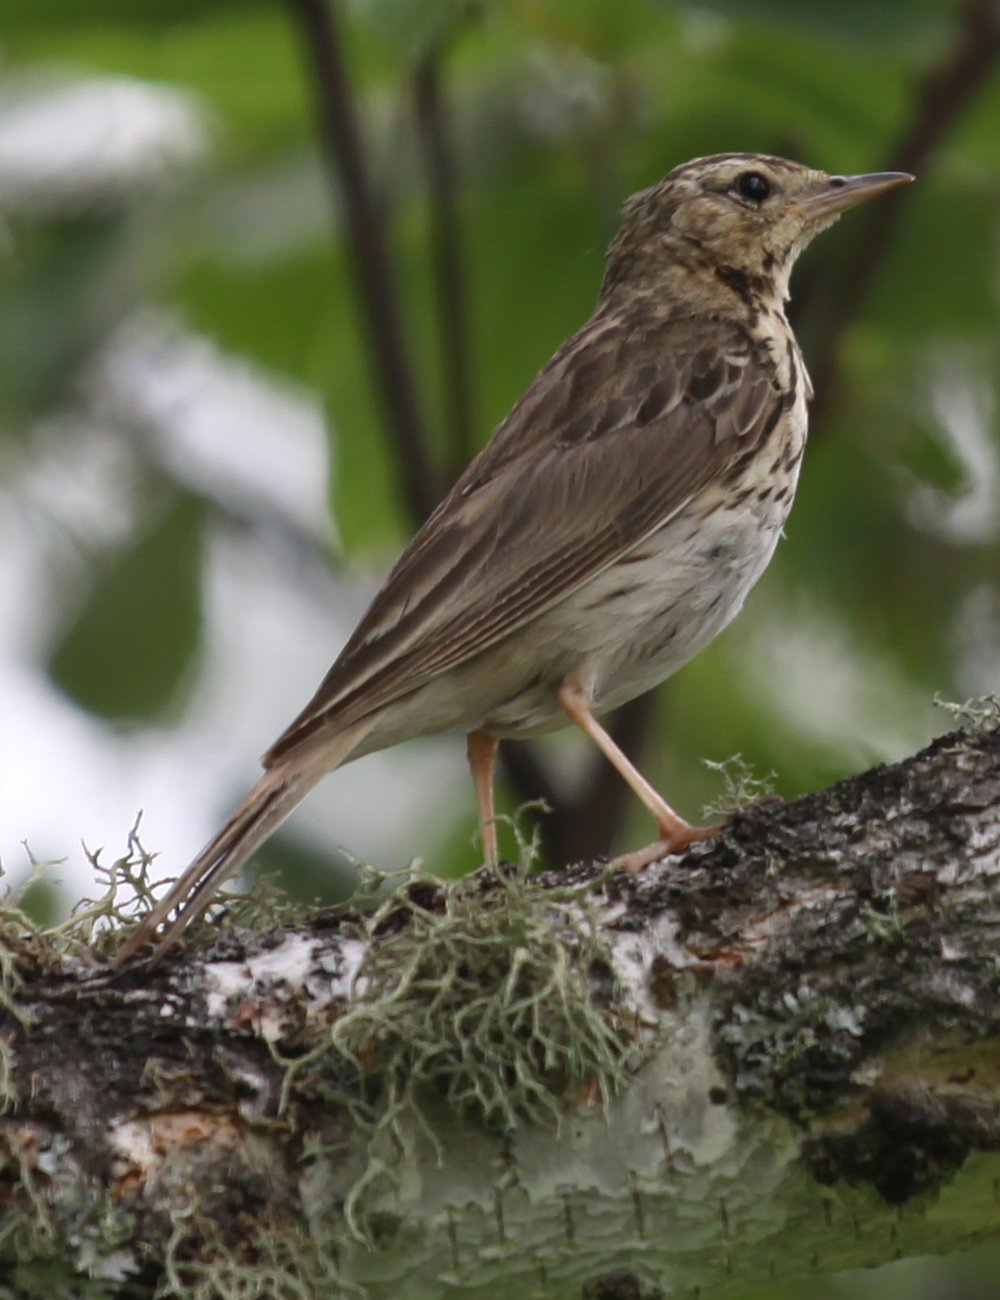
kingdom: Animalia
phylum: Chordata
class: Aves
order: Passeriformes
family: Motacillidae
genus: Anthus
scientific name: Anthus trivialis
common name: Tree pipit
